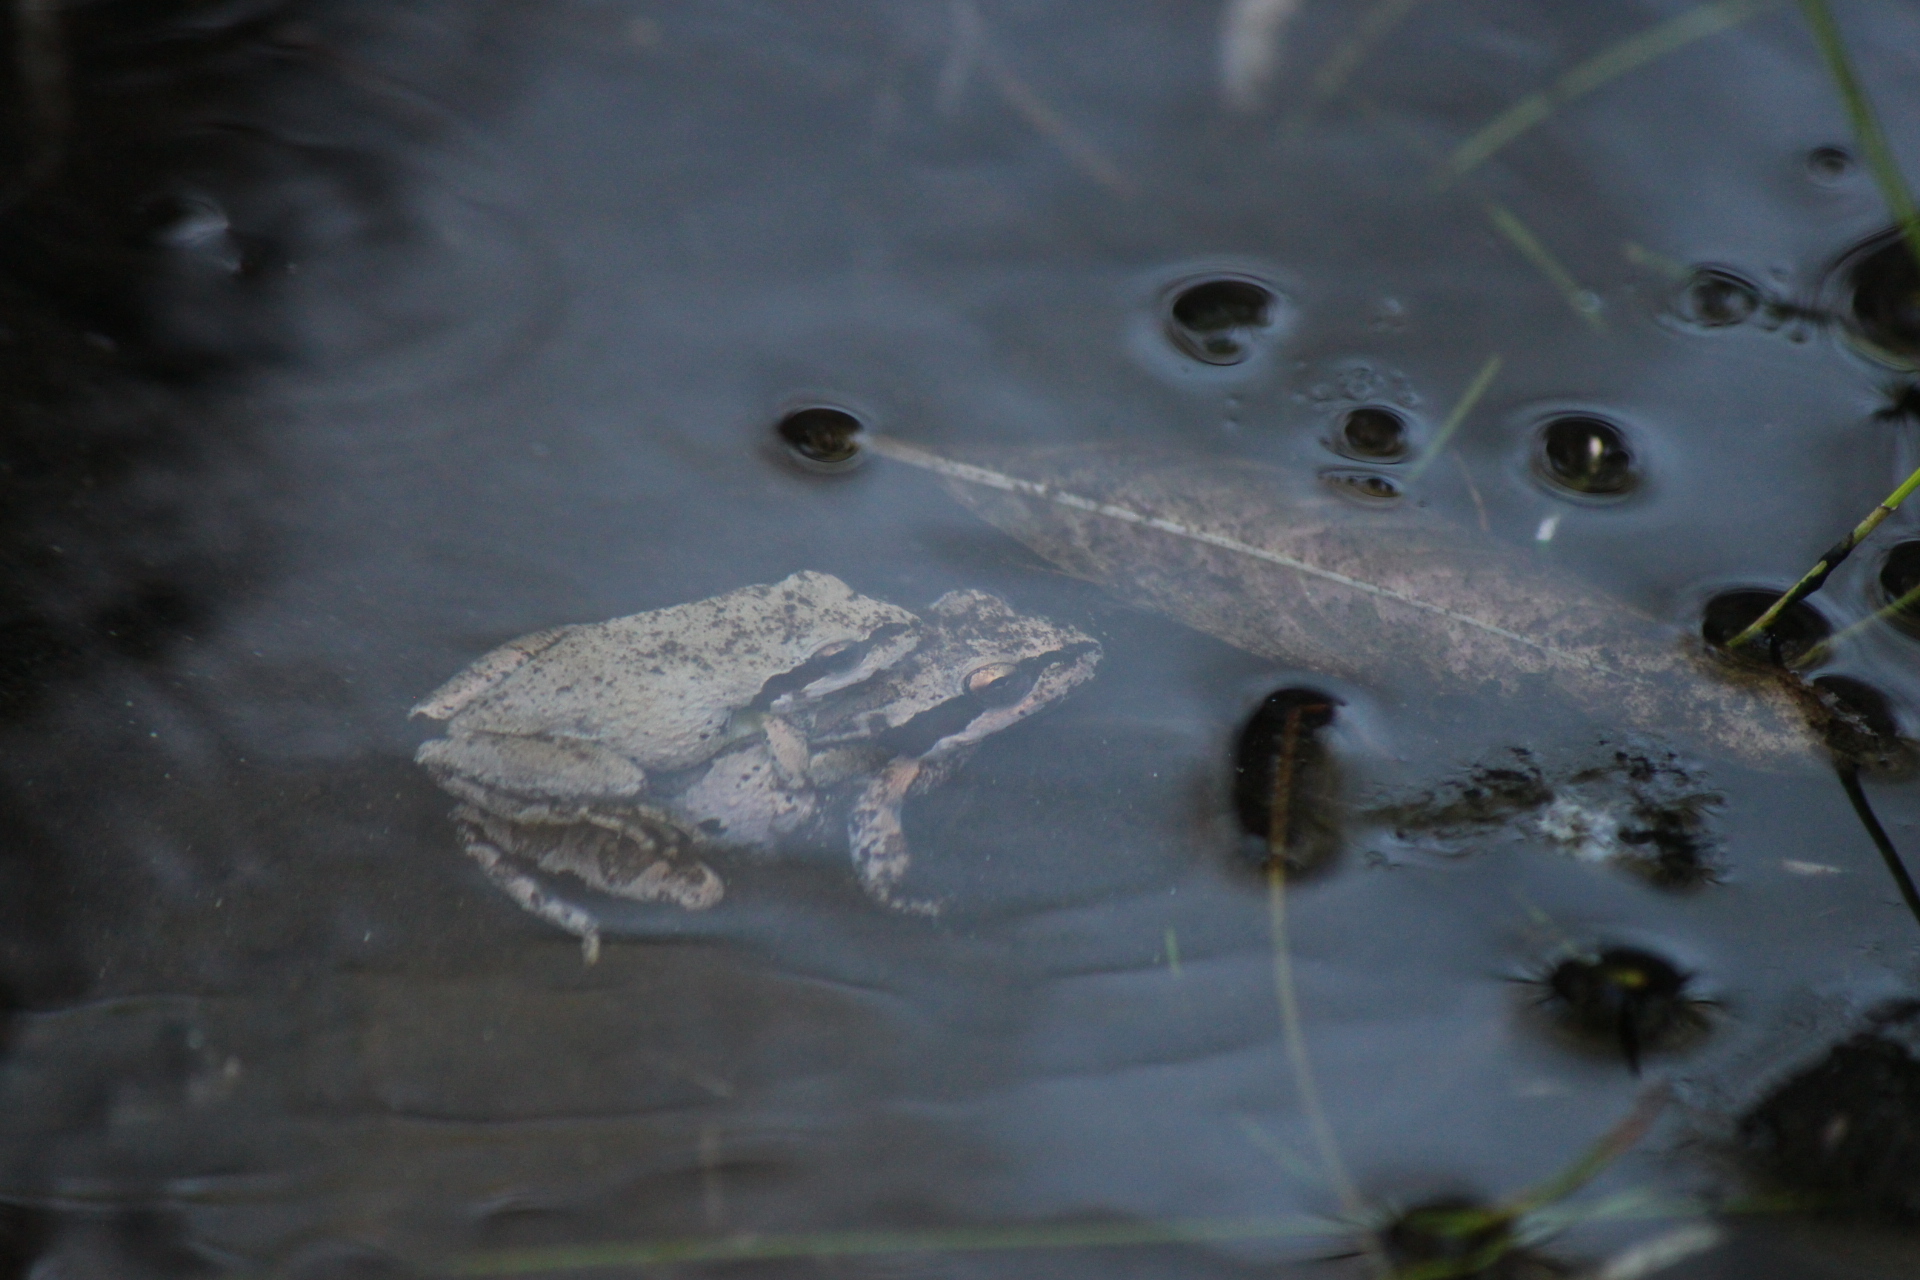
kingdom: Animalia
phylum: Chordata
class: Amphibia
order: Anura
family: Hylidae
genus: Pseudacris
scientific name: Pseudacris regilla
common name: Pacific chorus frog
